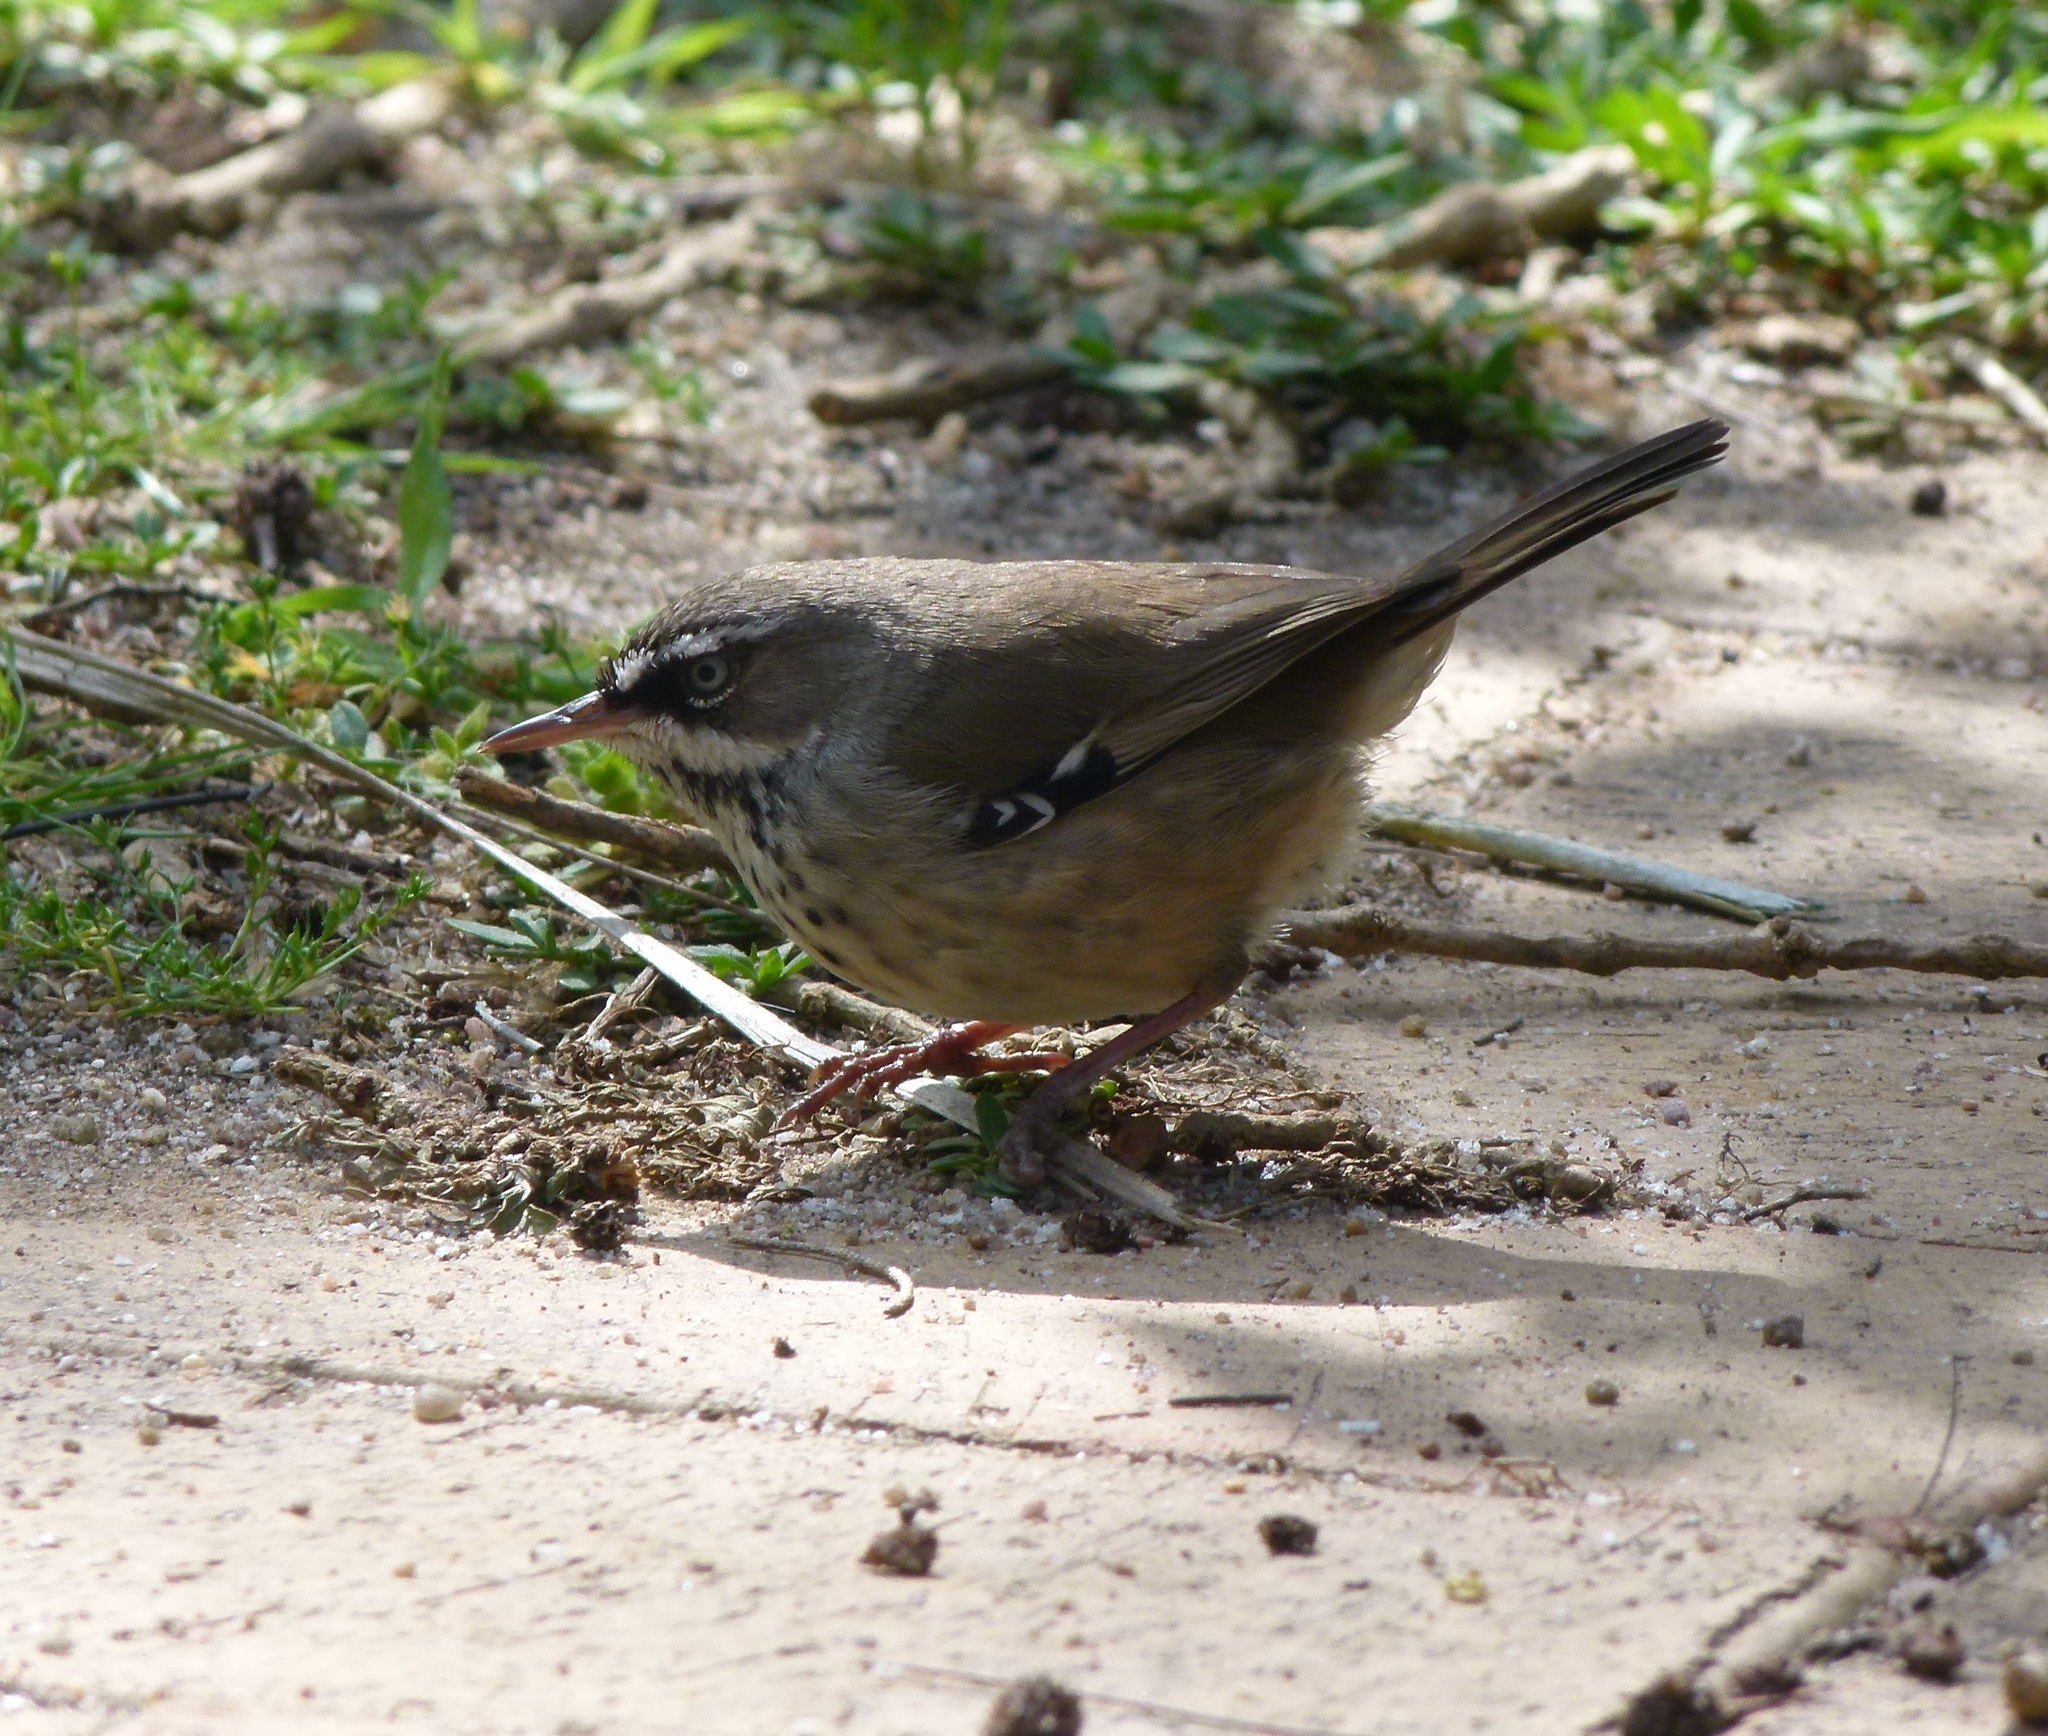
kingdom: Animalia
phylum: Chordata
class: Aves
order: Passeriformes
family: Acanthizidae
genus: Sericornis
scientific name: Sericornis maculatus
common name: Spotted scrubwren
